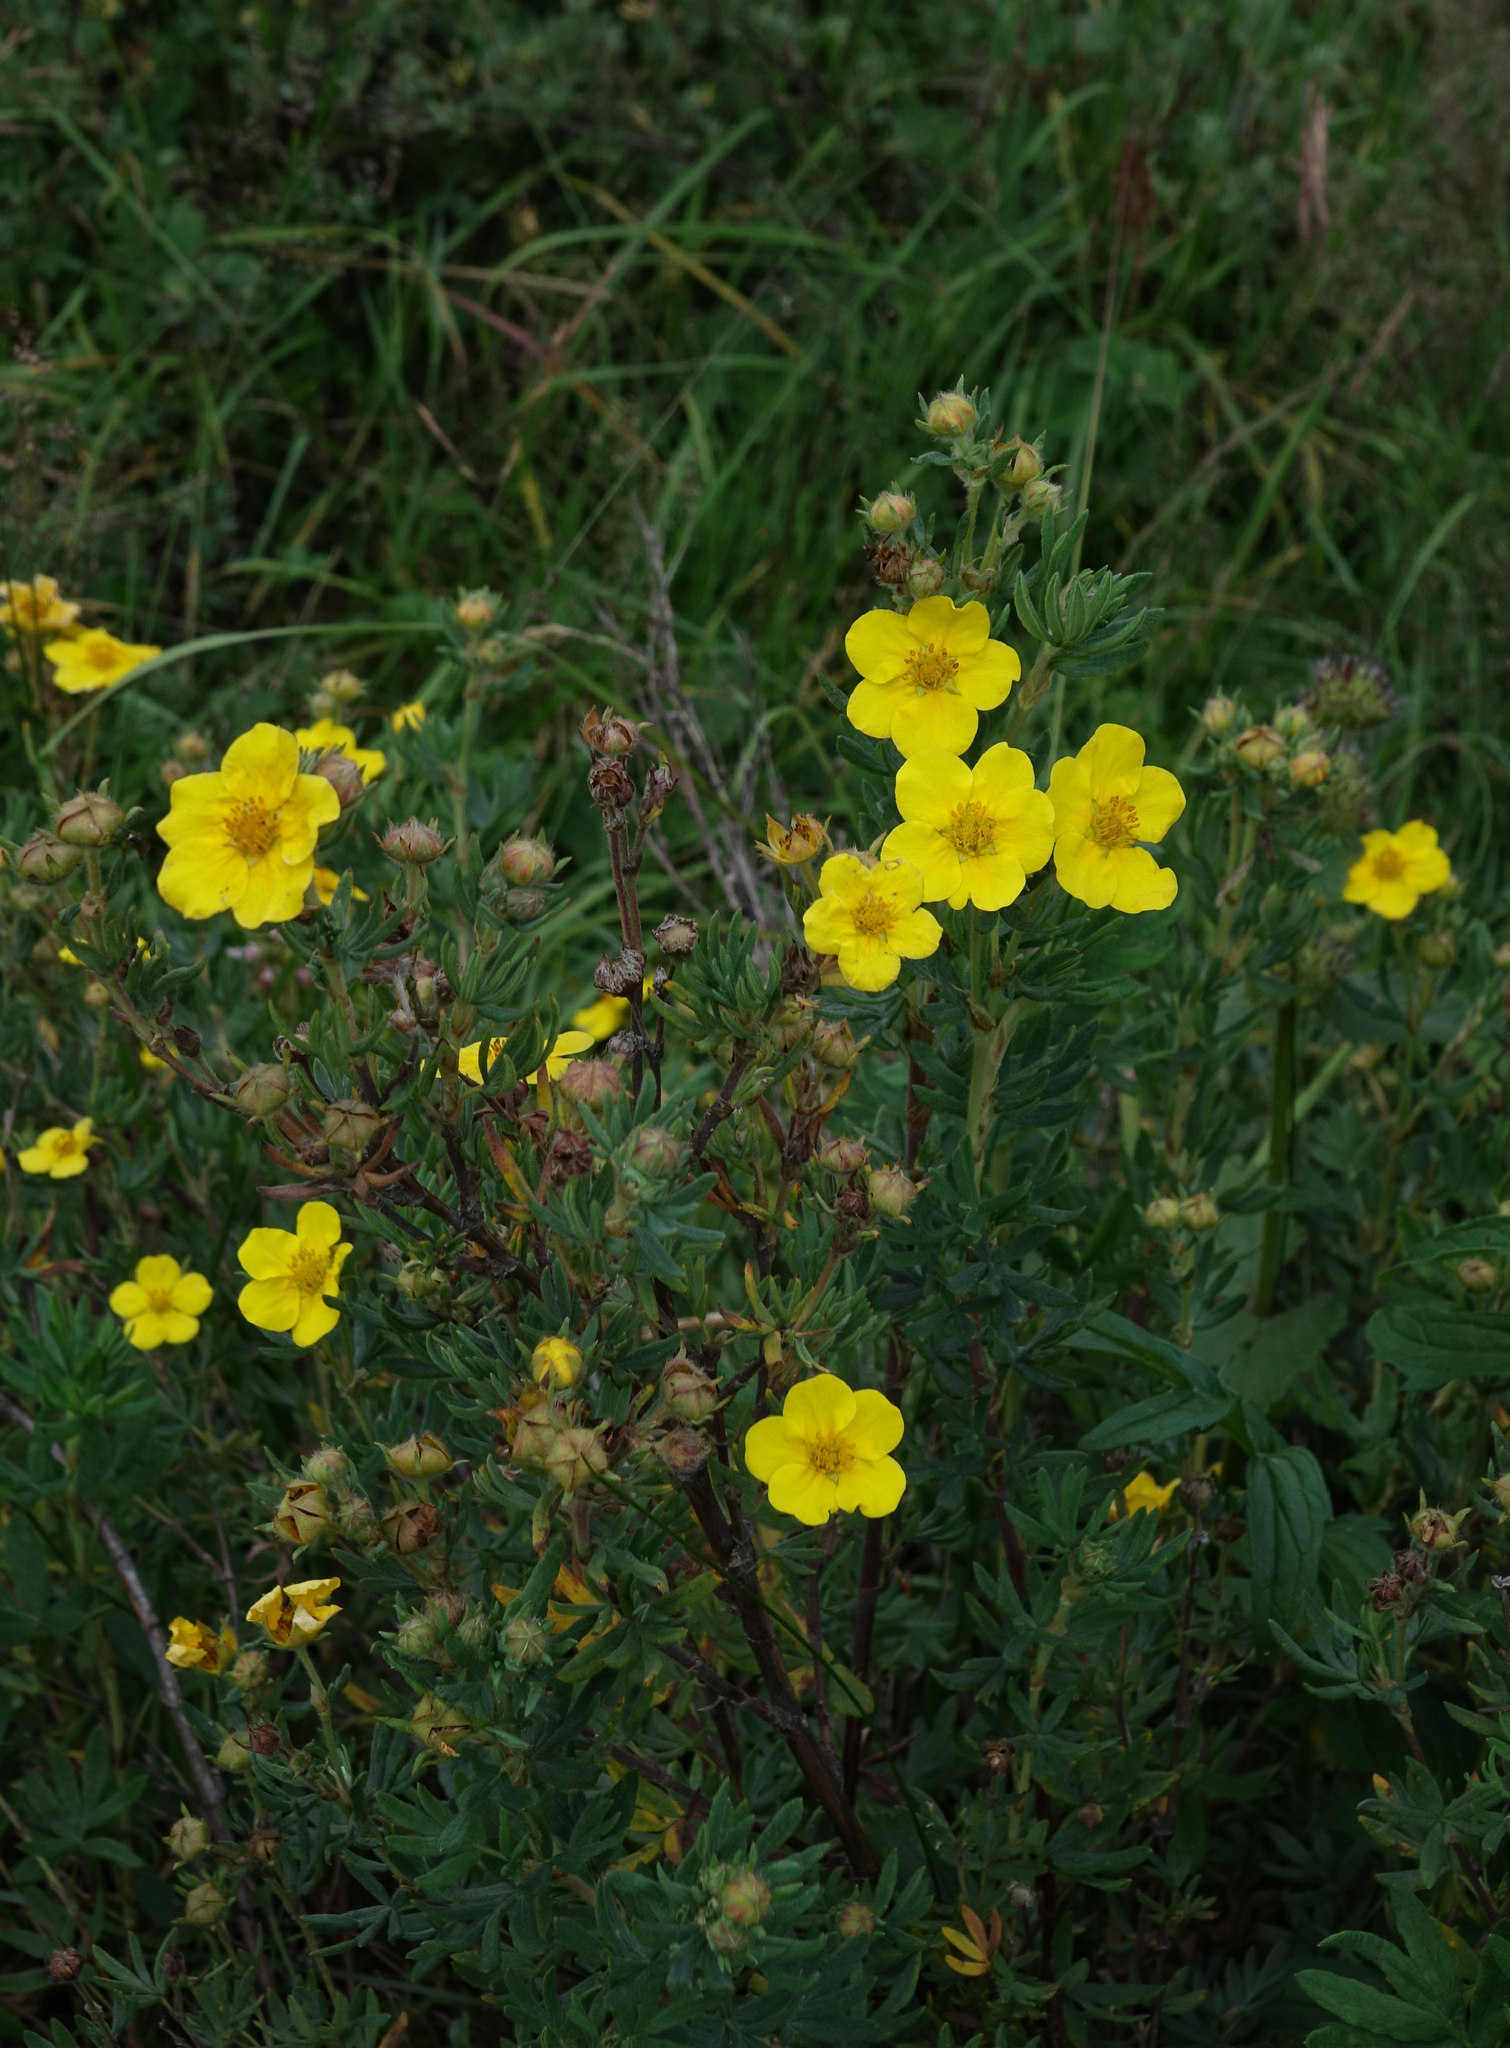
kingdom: Plantae
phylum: Tracheophyta
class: Magnoliopsida
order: Rosales
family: Rosaceae
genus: Dasiphora
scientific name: Dasiphora fruticosa
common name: Shrubby cinquefoil
